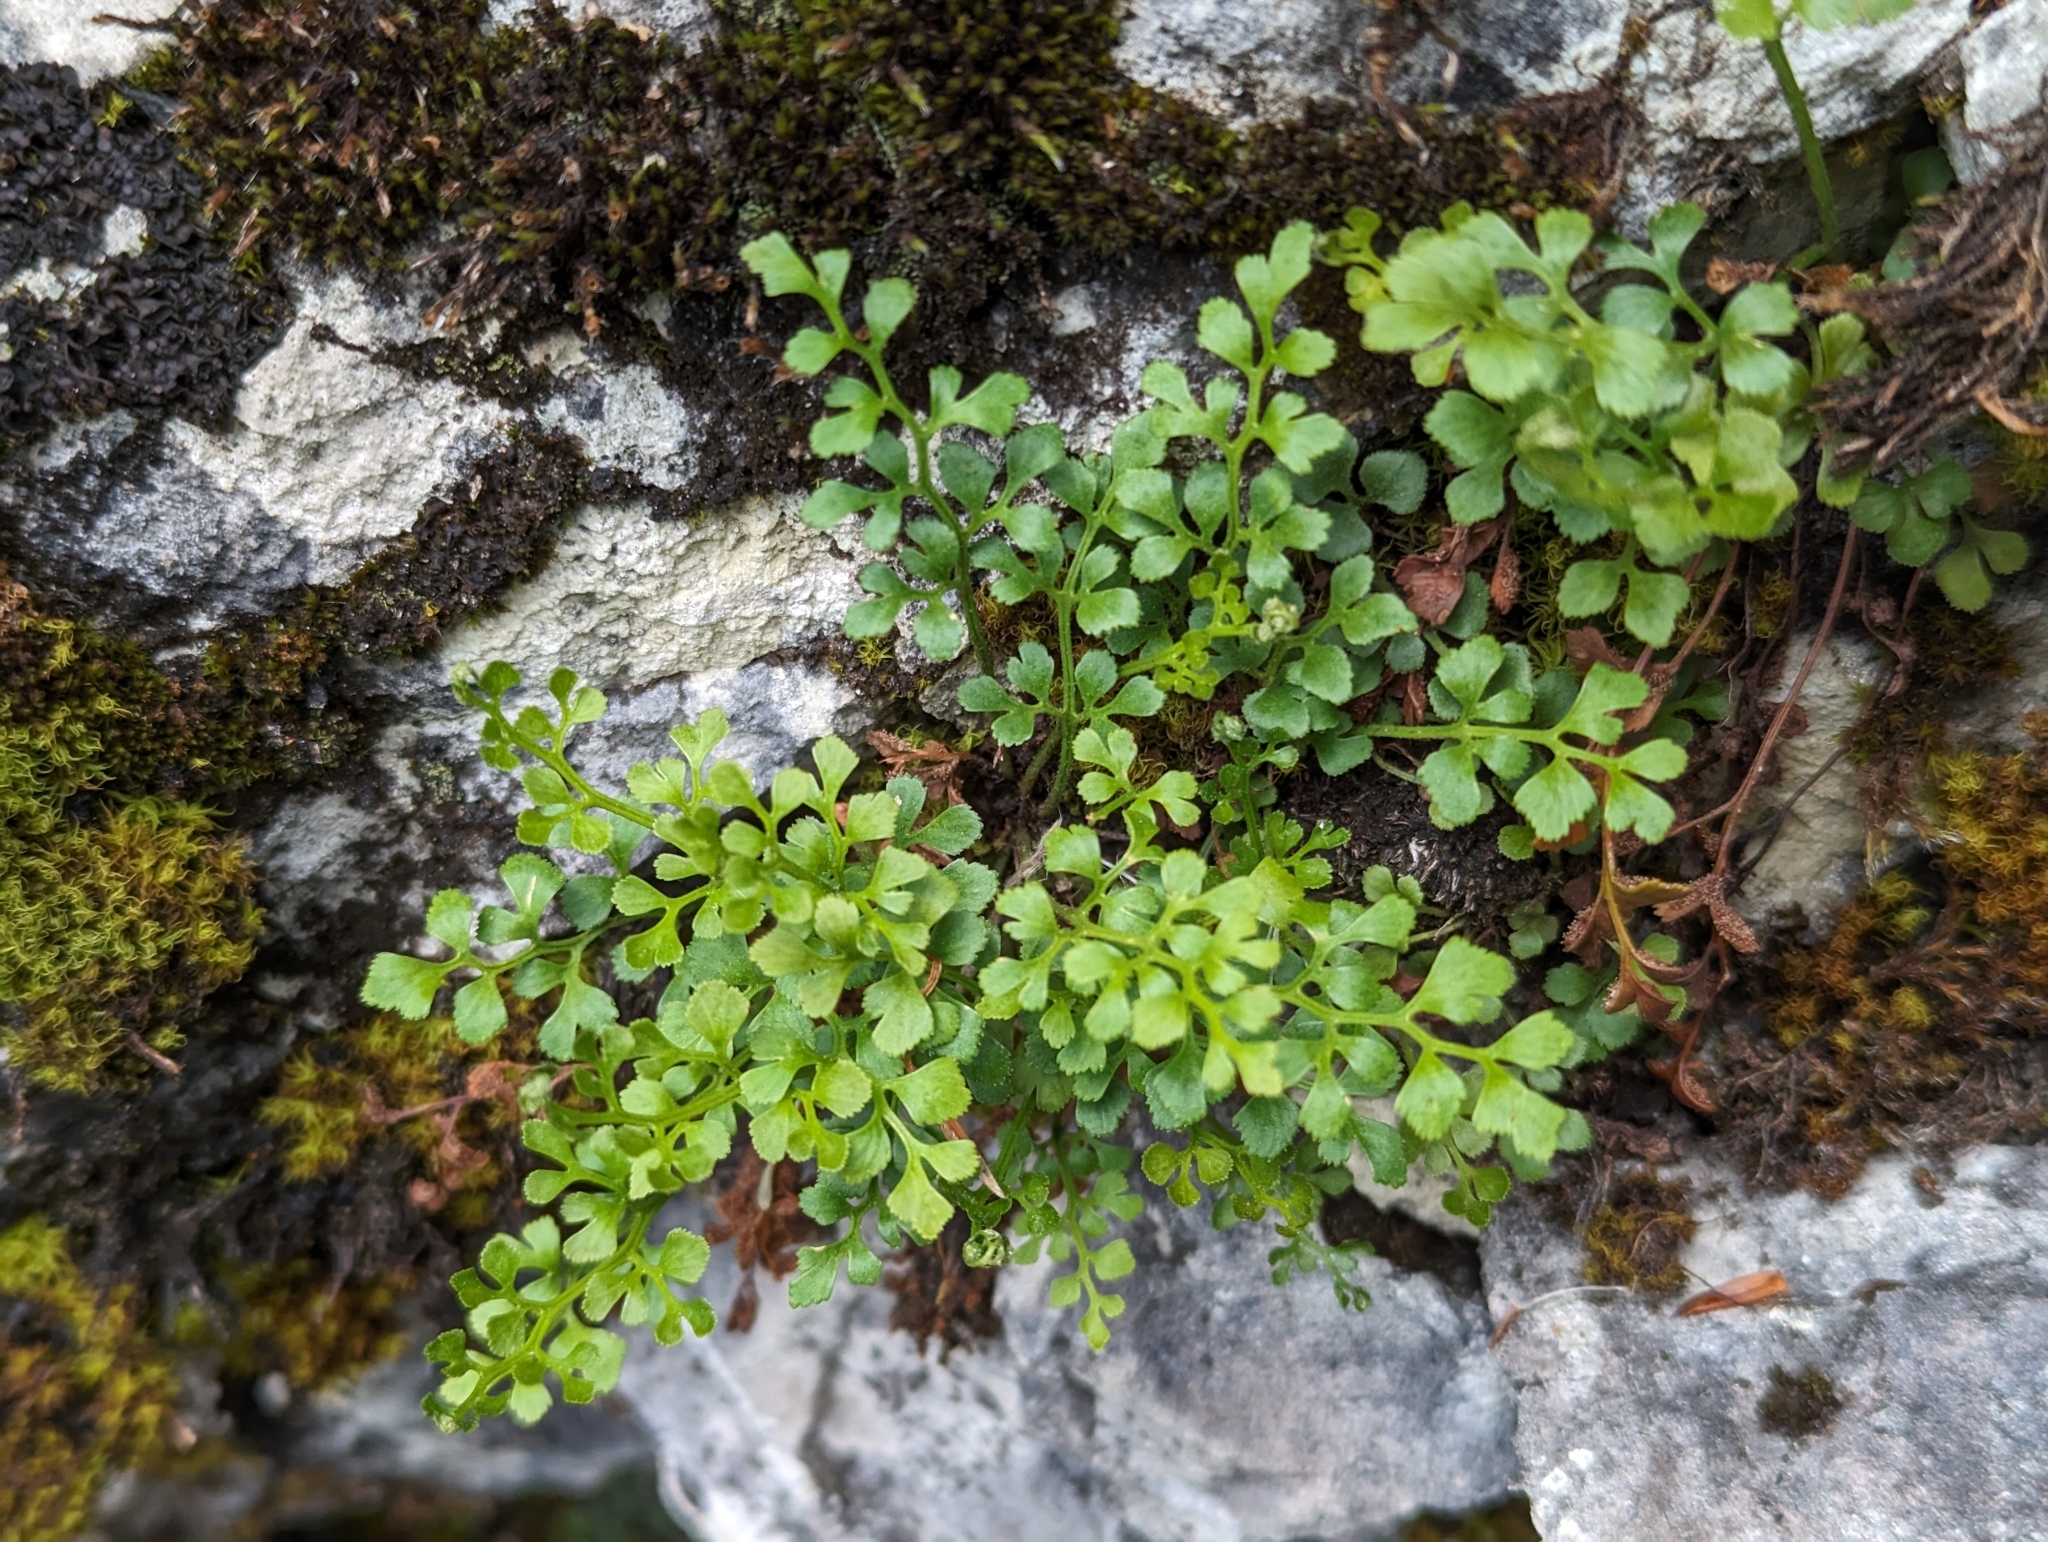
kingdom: Plantae
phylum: Tracheophyta
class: Polypodiopsida
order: Polypodiales
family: Aspleniaceae
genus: Asplenium
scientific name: Asplenium ruta-muraria
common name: Wall-rue
